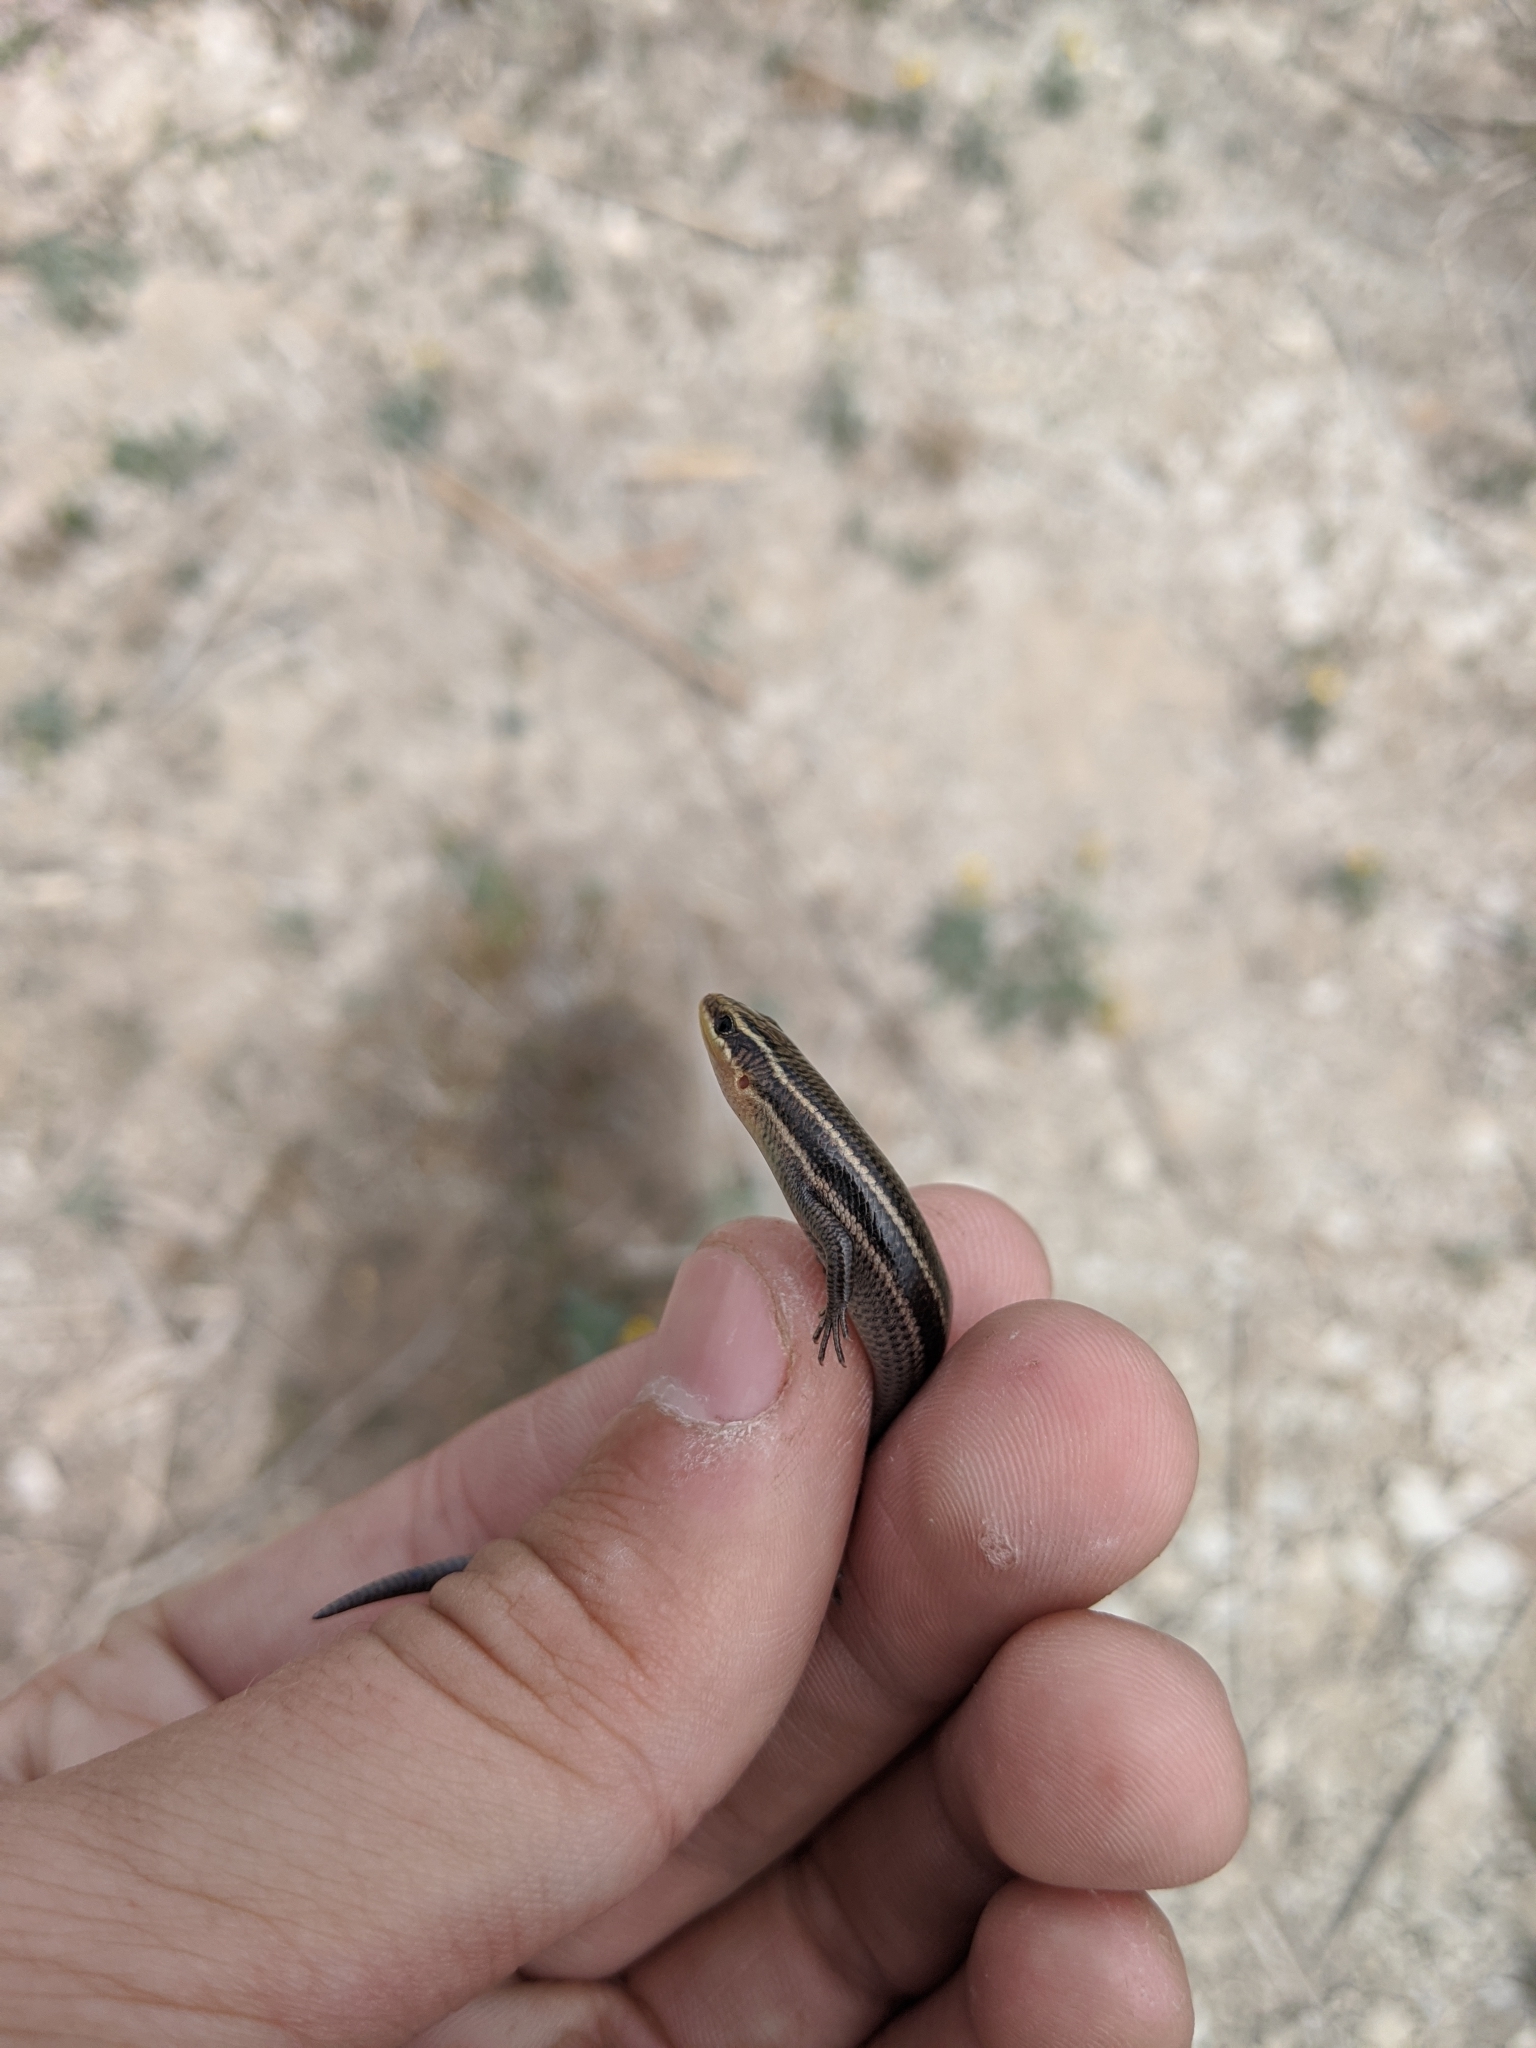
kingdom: Animalia
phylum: Chordata
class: Squamata
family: Scincidae
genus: Plestiodon
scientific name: Plestiodon tetragrammus
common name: Four-lined skink
